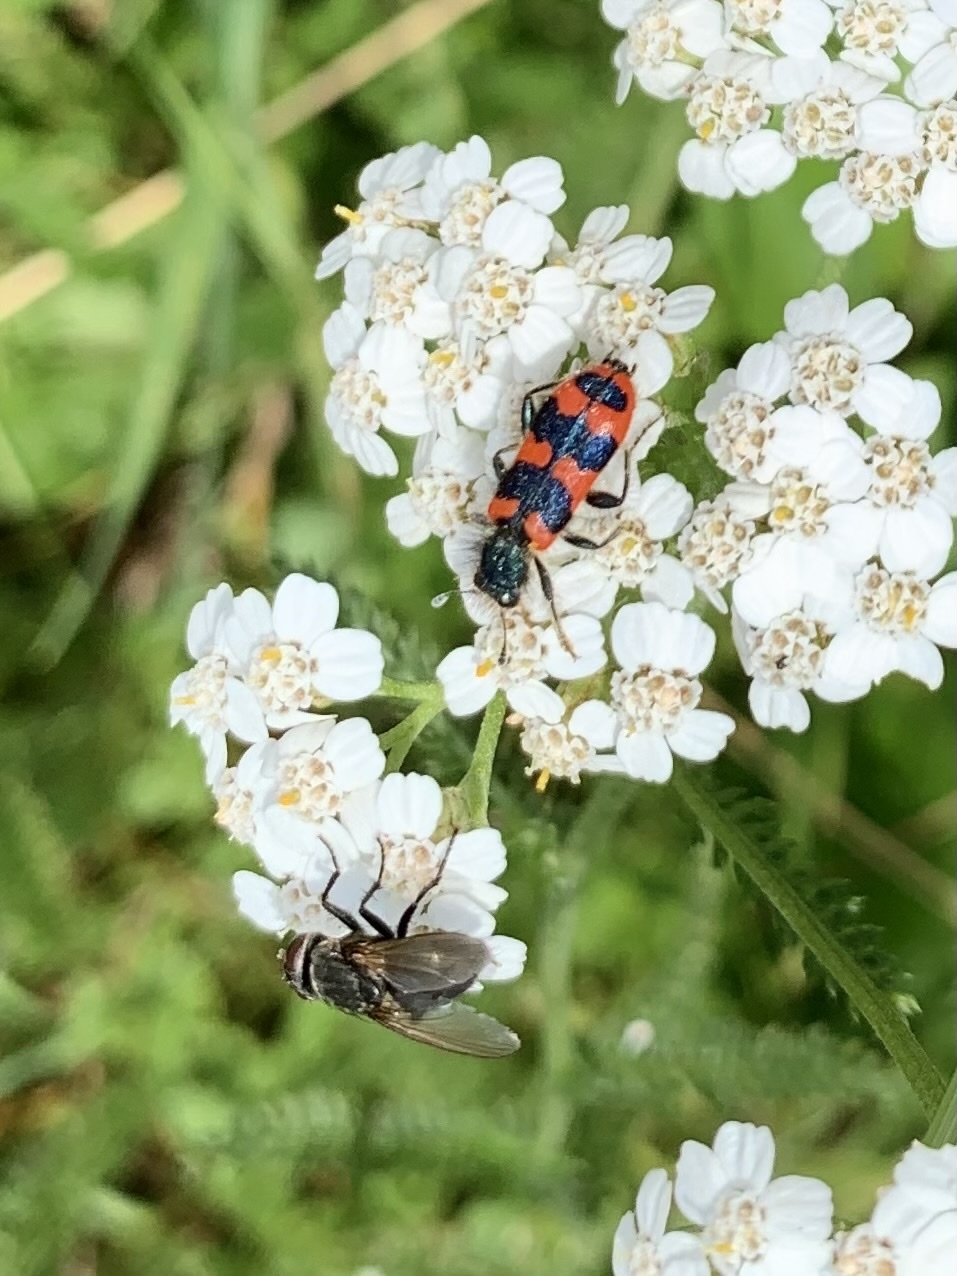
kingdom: Animalia
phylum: Arthropoda
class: Insecta
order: Coleoptera
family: Cleridae
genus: Trichodes
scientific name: Trichodes alvearius
